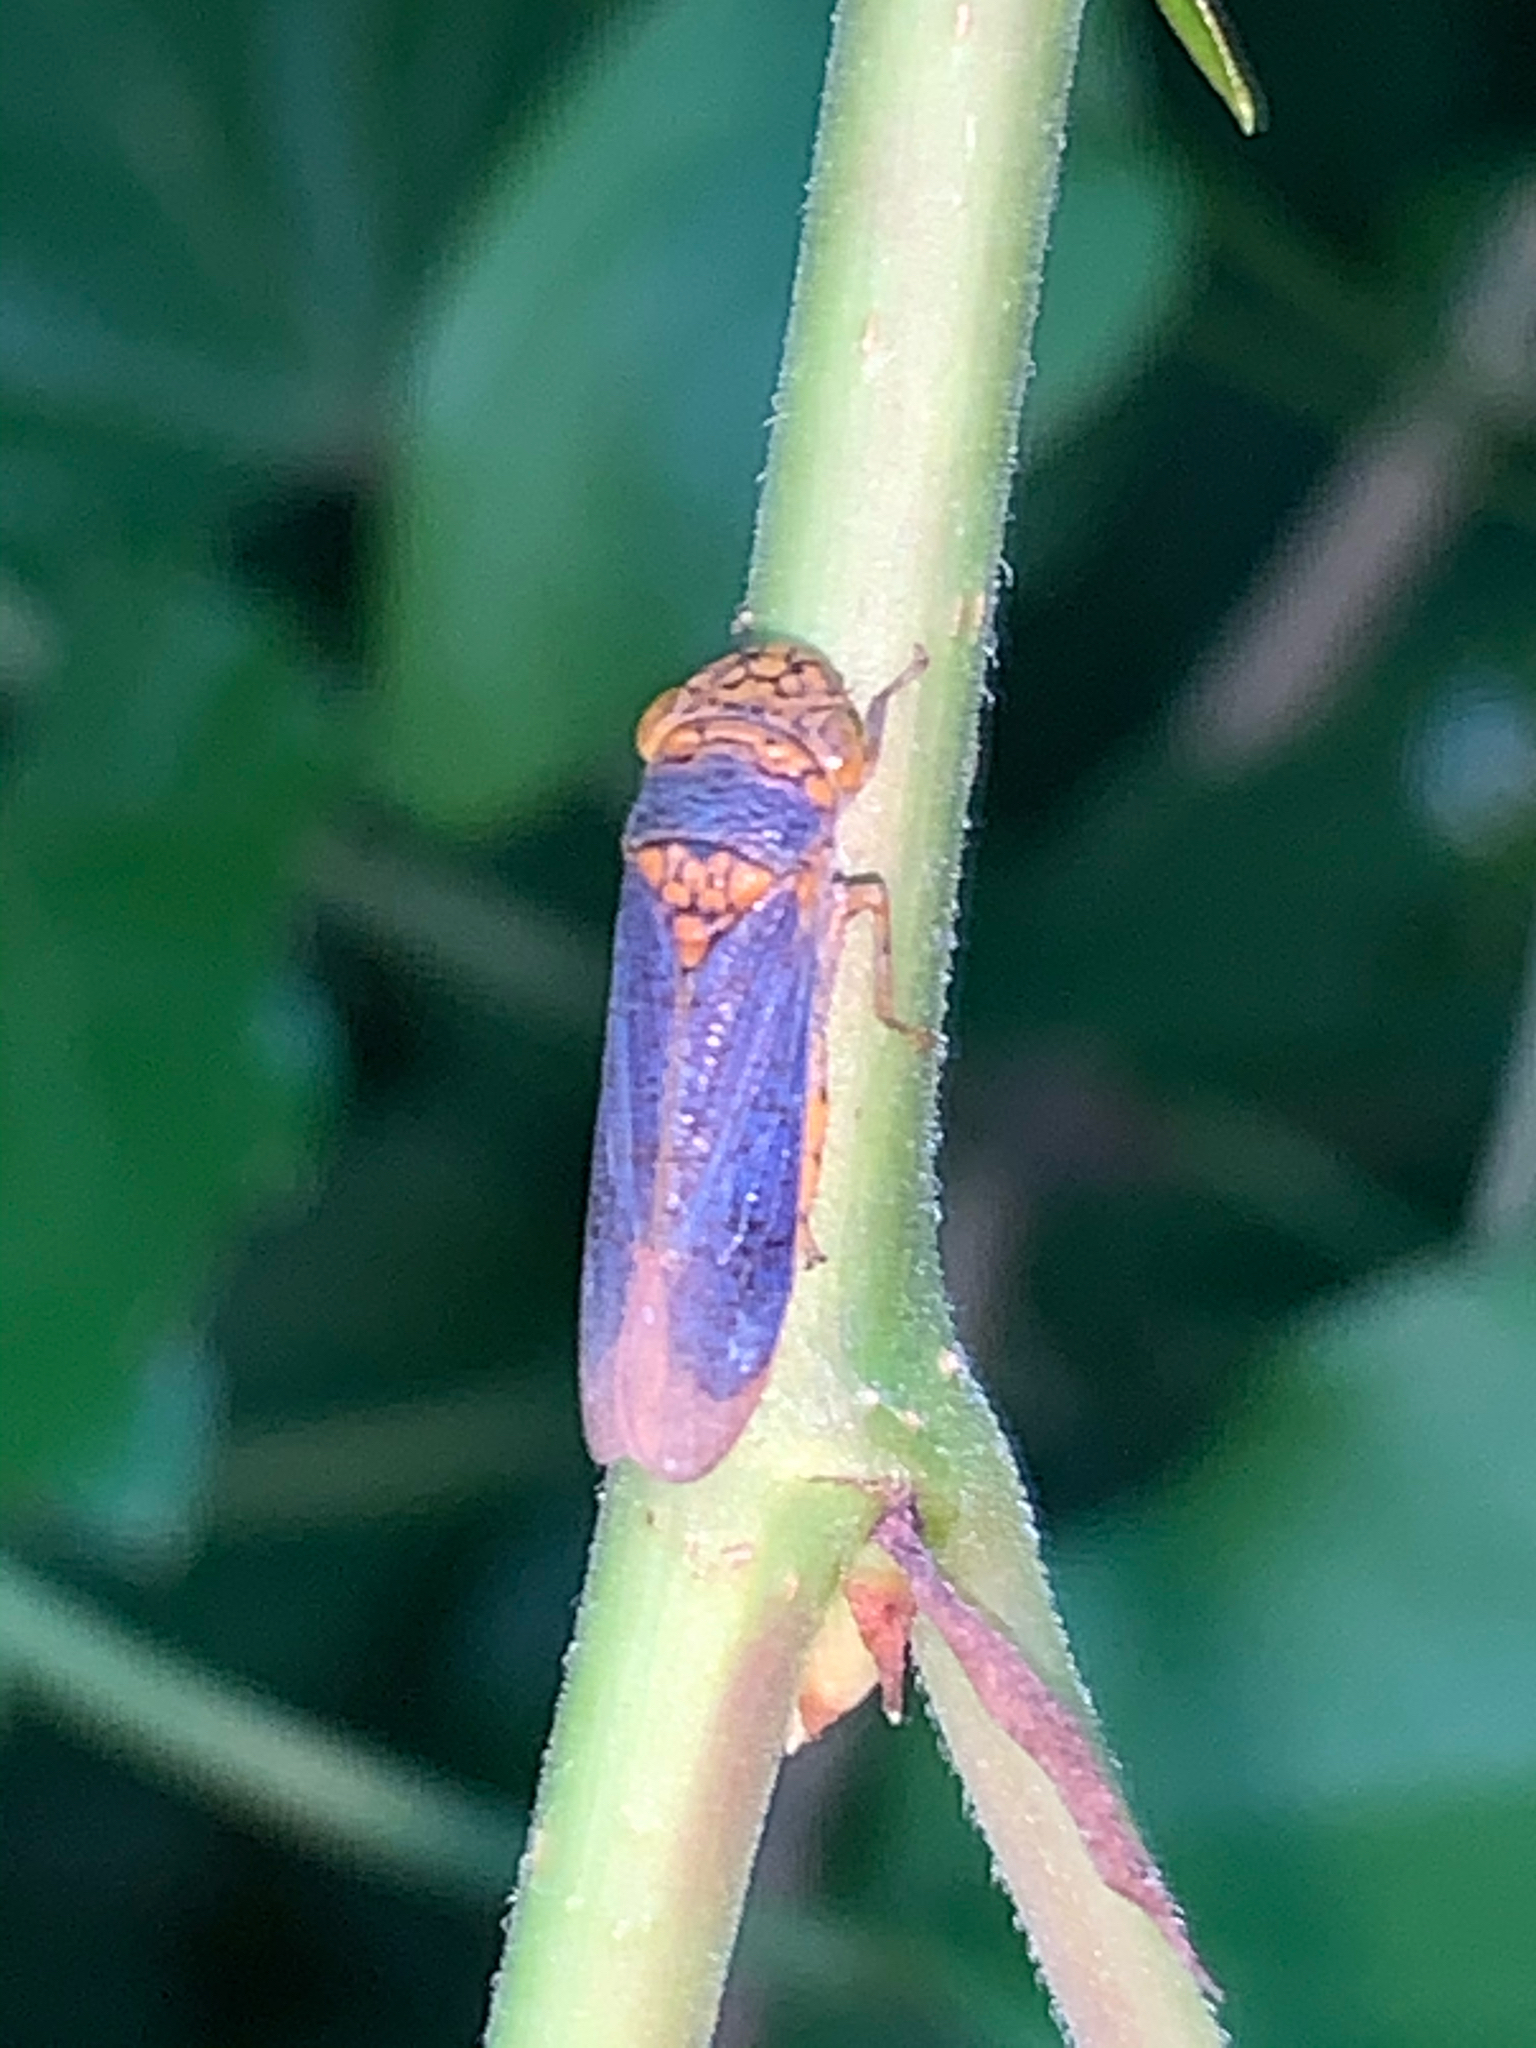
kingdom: Animalia
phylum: Arthropoda
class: Insecta
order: Hemiptera
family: Cicadellidae
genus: Oncometopia
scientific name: Oncometopia orbona
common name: Broad-headed sharpshooter
